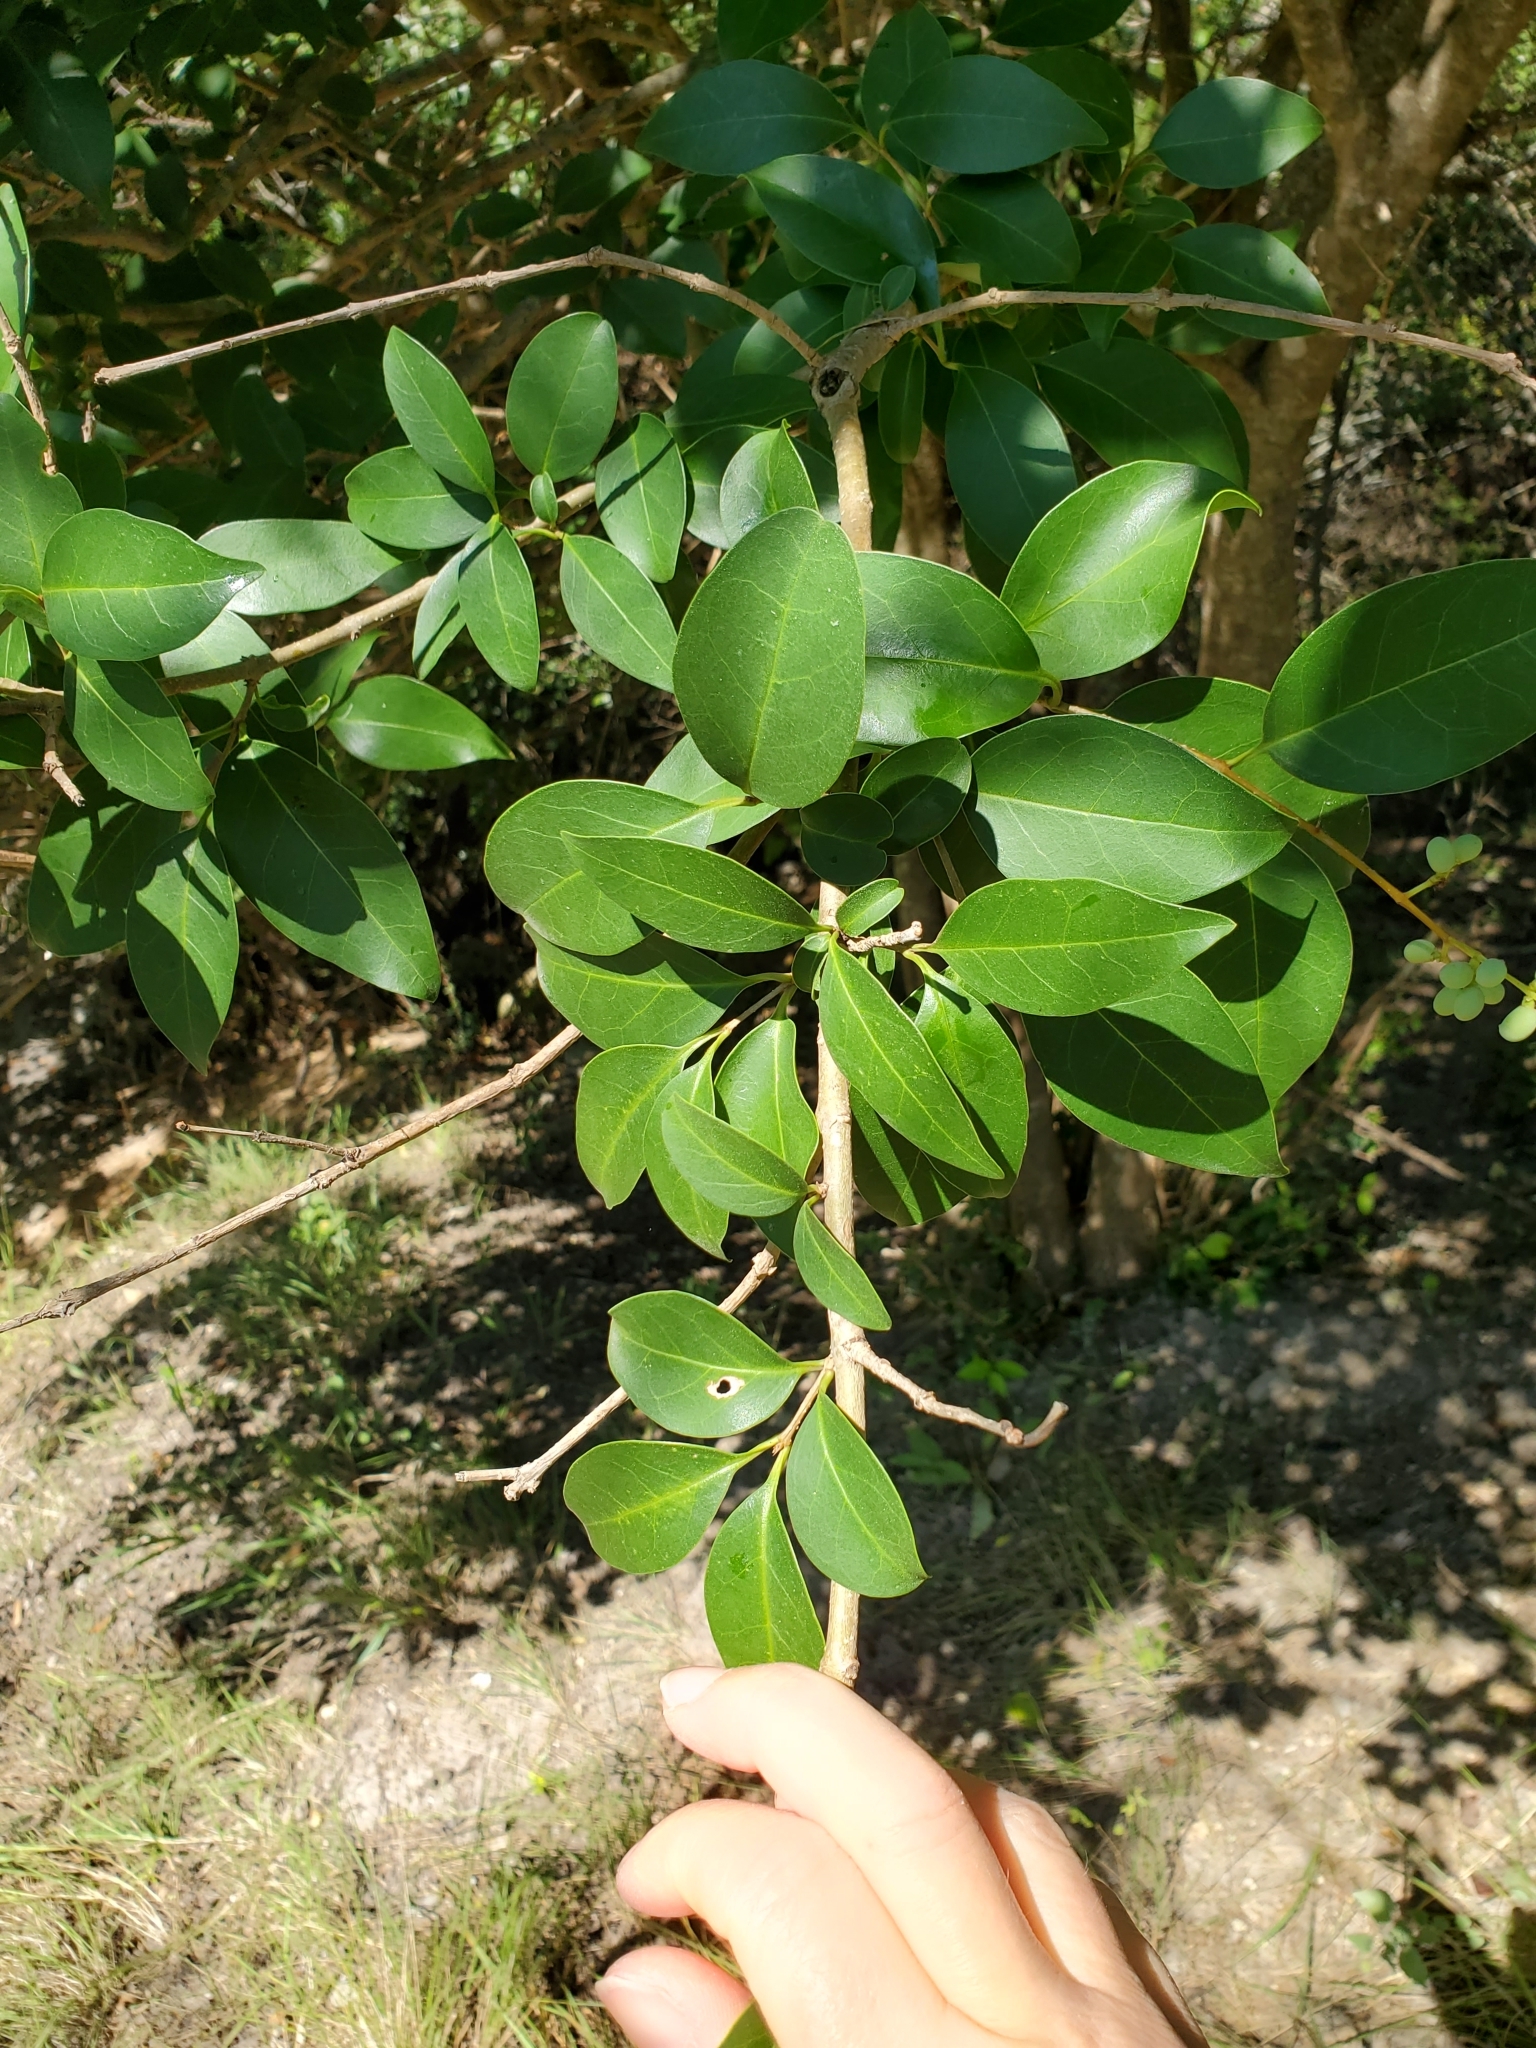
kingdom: Plantae
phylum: Tracheophyta
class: Magnoliopsida
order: Lamiales
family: Oleaceae
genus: Ligustrum
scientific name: Ligustrum lucidum
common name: Glossy privet
